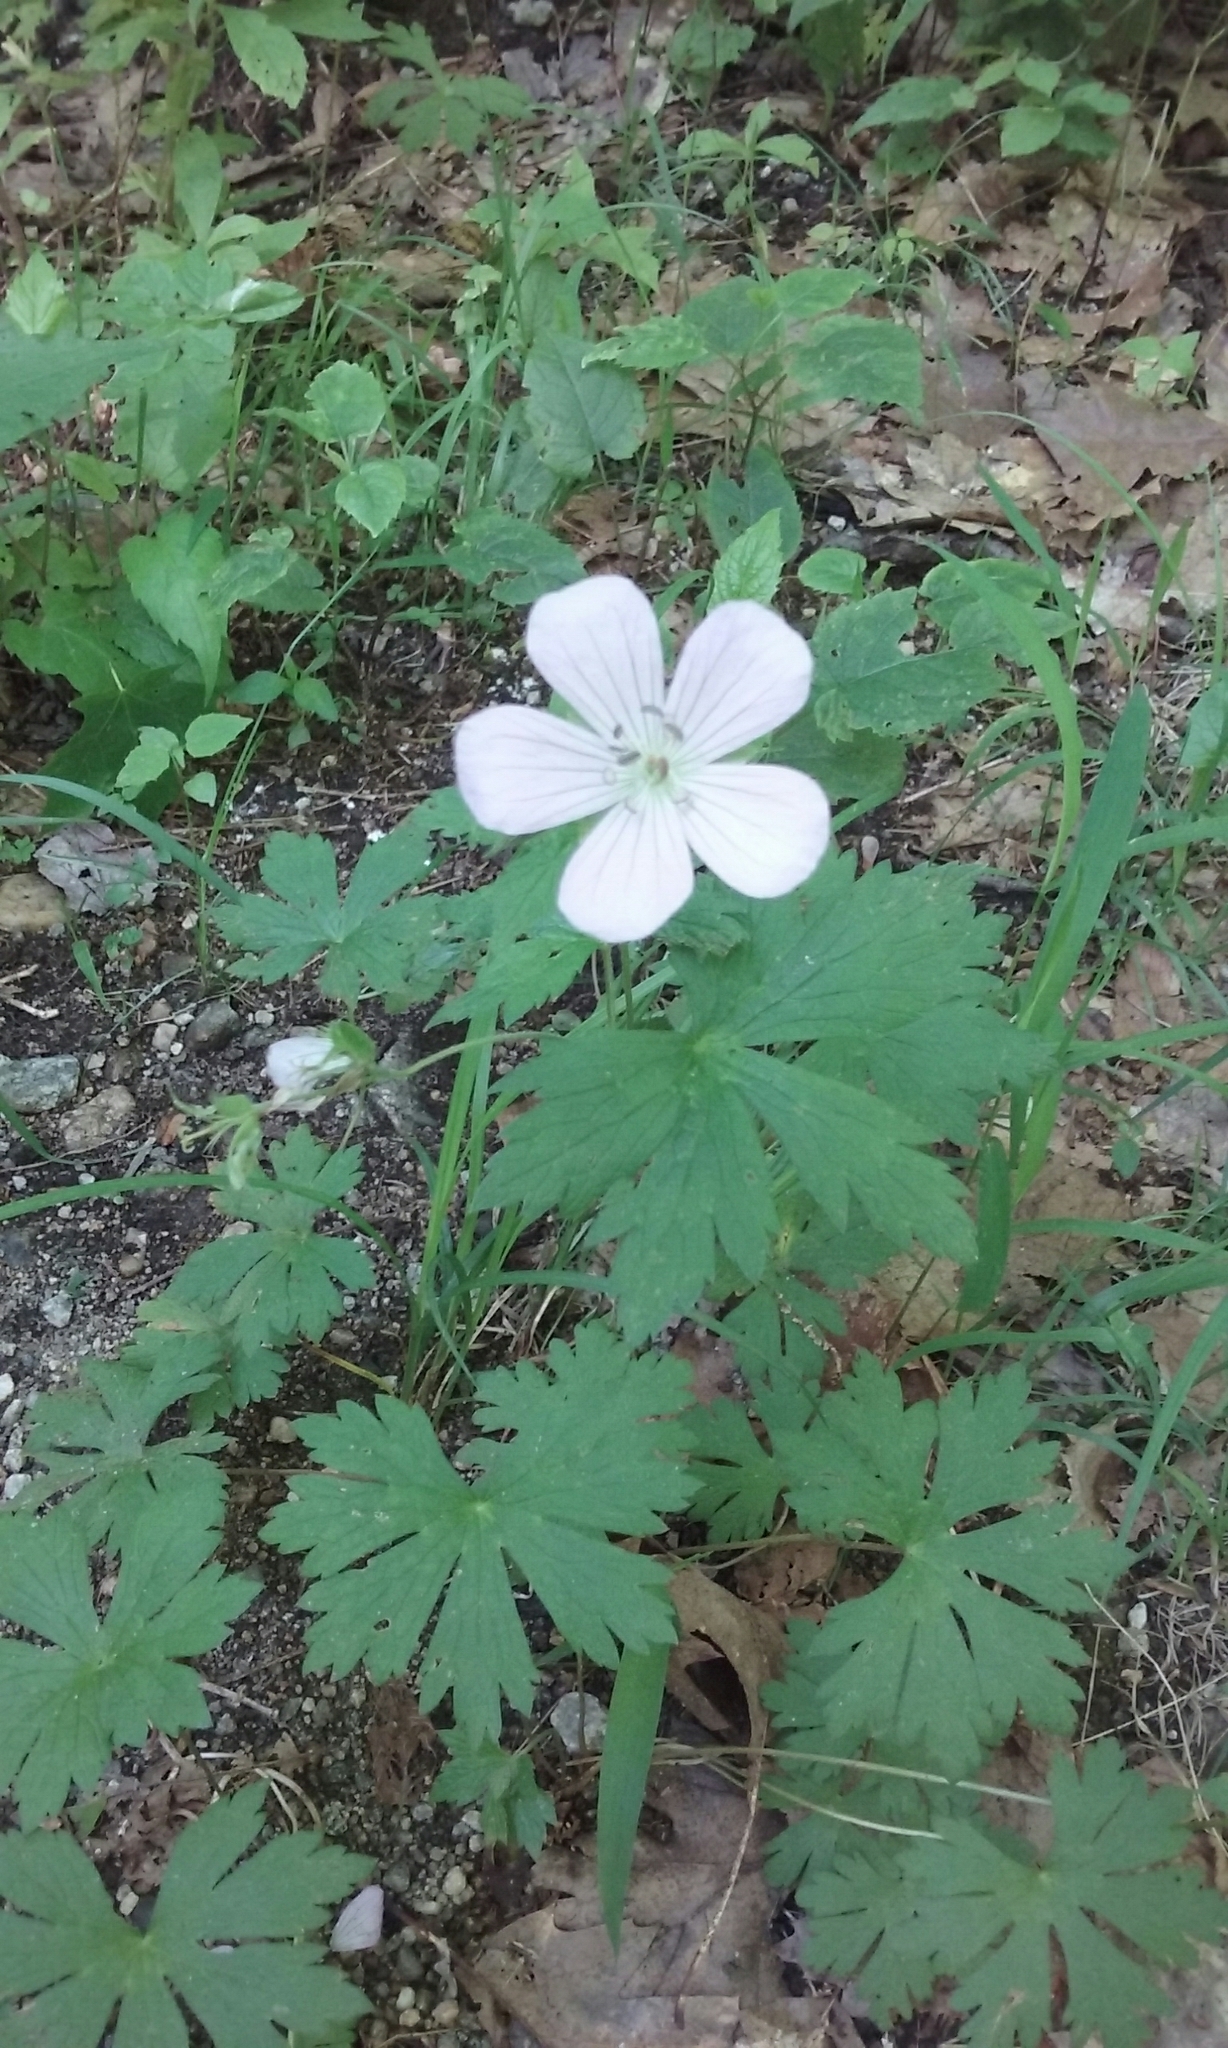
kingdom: Plantae
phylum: Tracheophyta
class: Magnoliopsida
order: Geraniales
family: Geraniaceae
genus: Geranium
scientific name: Geranium maculatum
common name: Spotted geranium
